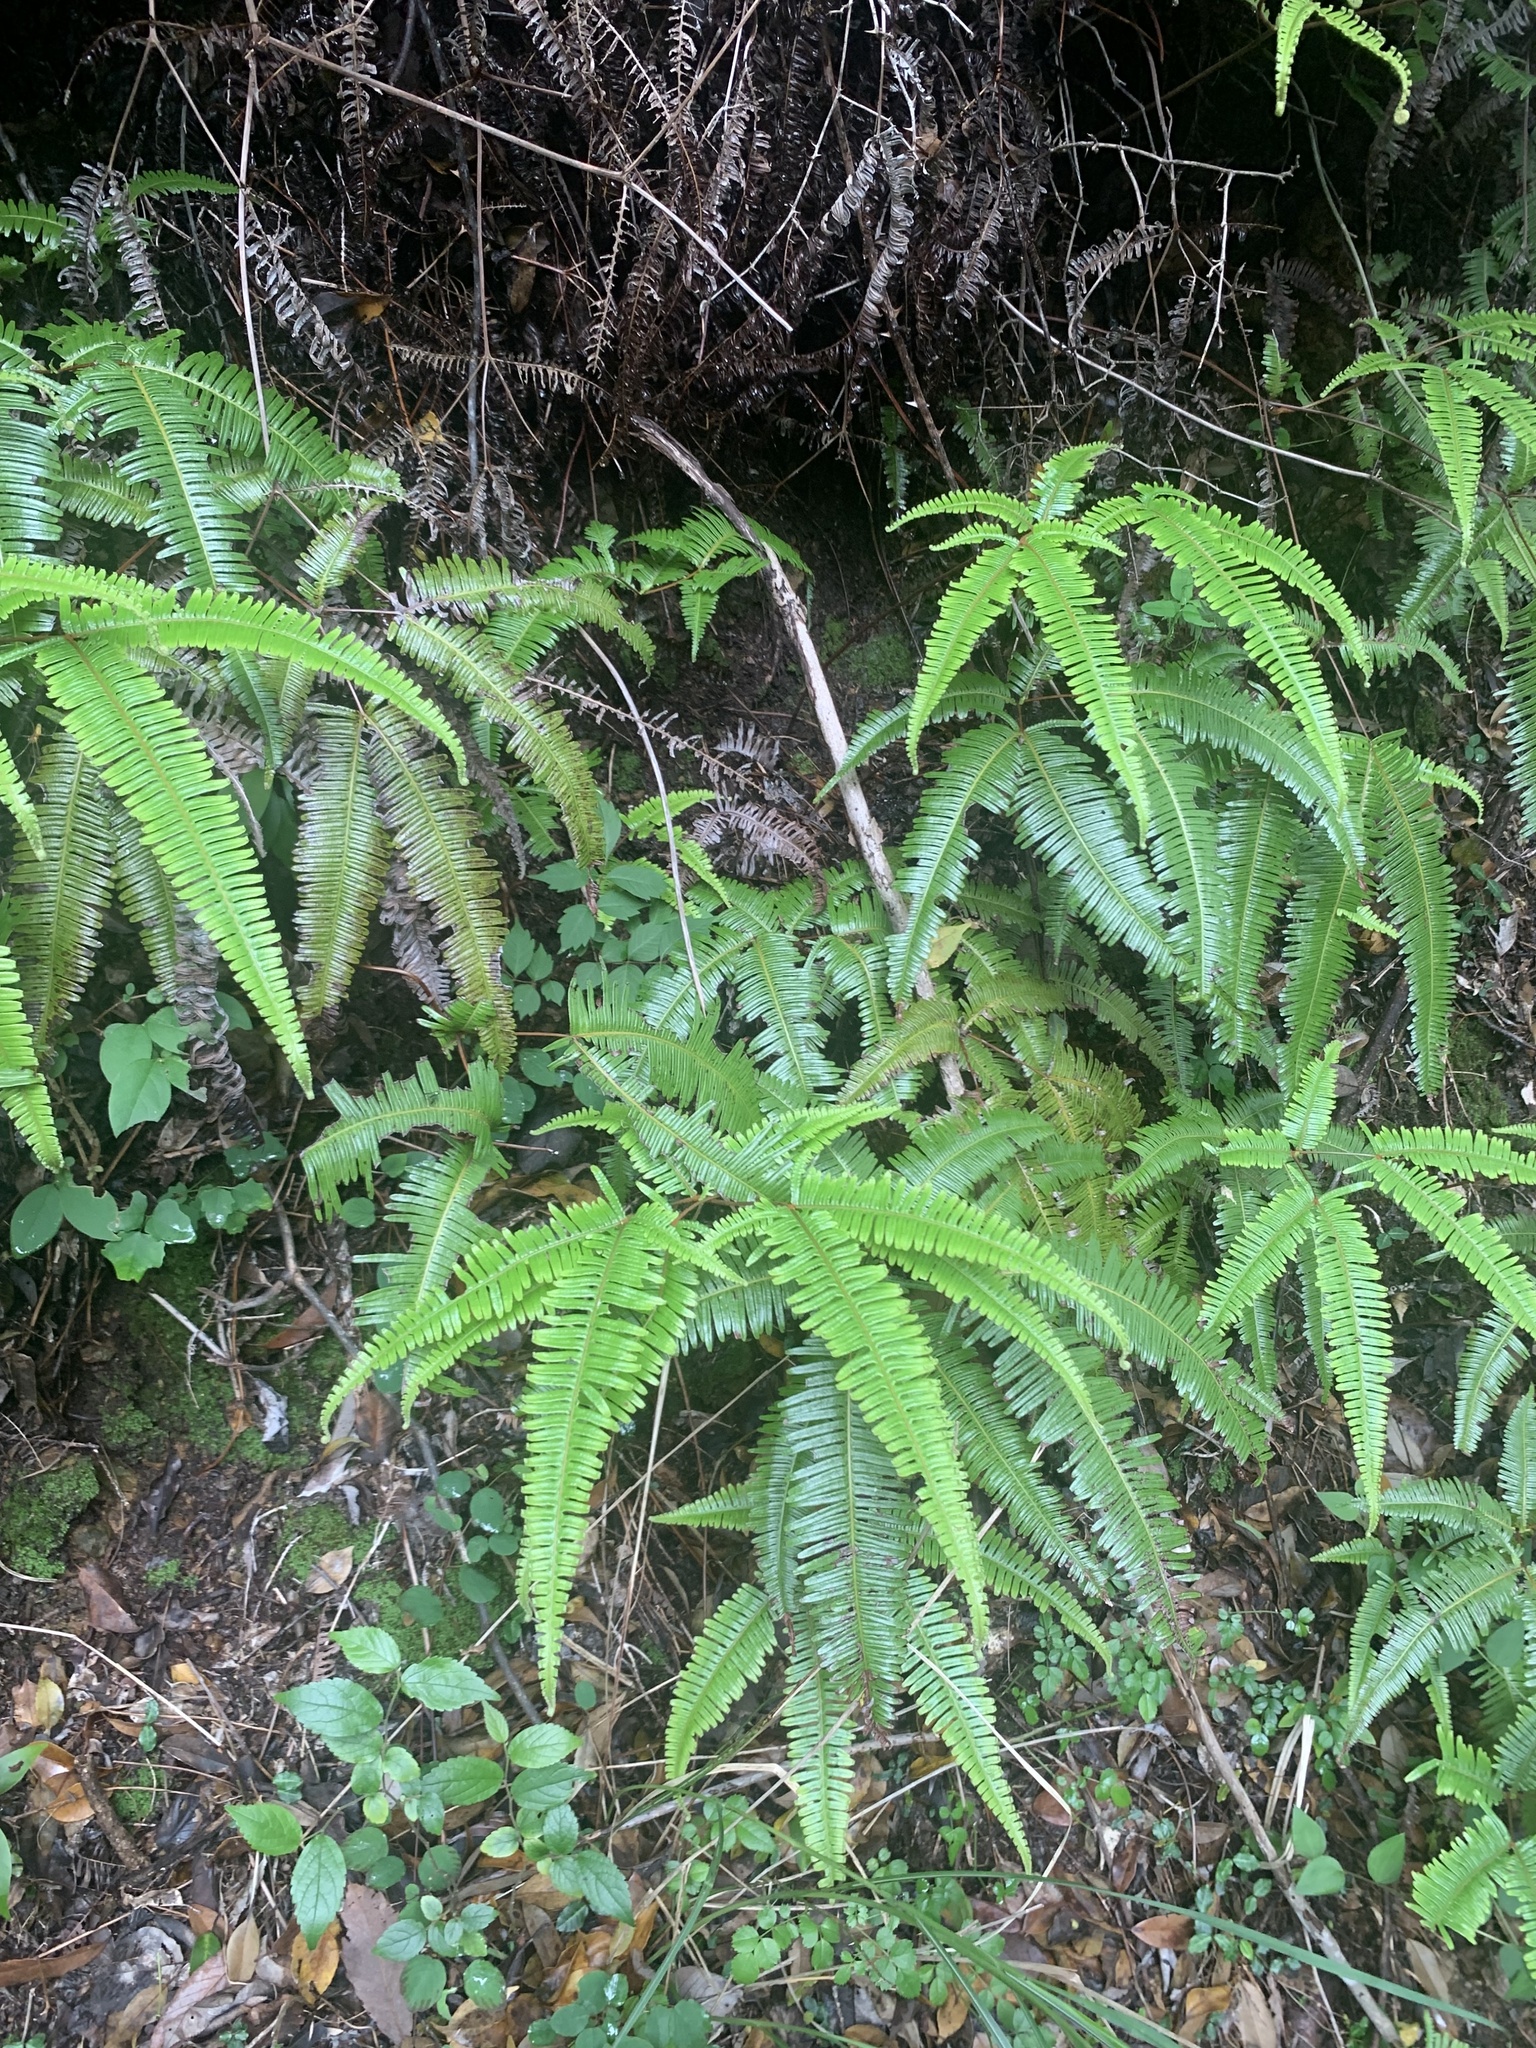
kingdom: Plantae
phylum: Tracheophyta
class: Polypodiopsida
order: Gleicheniales
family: Gleicheniaceae
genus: Dicranopteris
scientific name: Dicranopteris linearis
